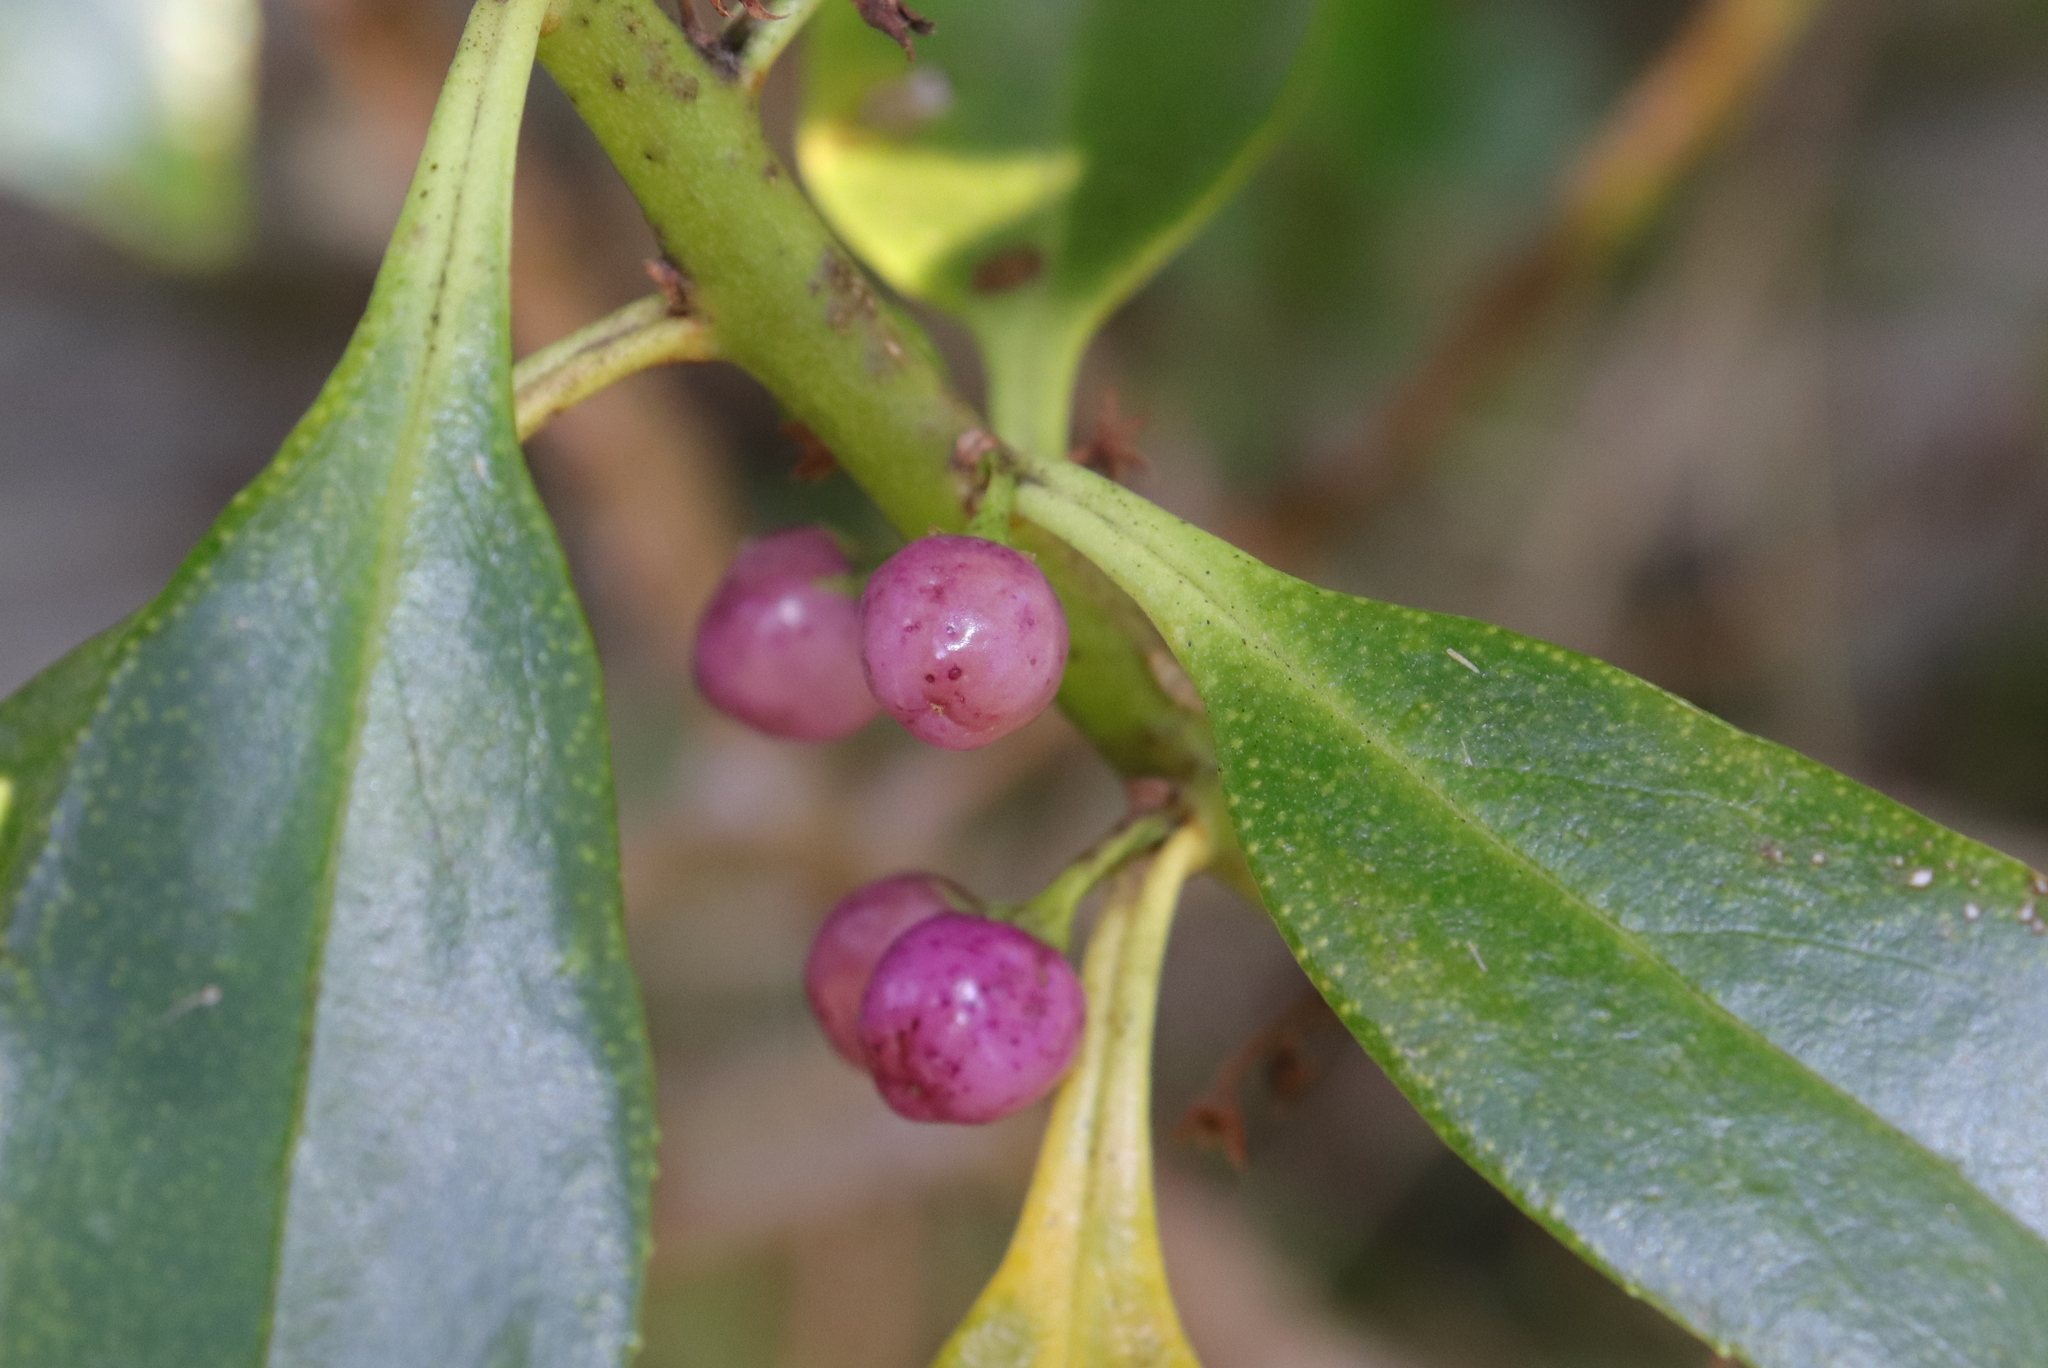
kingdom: Plantae
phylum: Tracheophyta
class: Magnoliopsida
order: Lamiales
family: Scrophulariaceae
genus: Myoporum
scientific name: Myoporum laetum
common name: Ngaio tree
